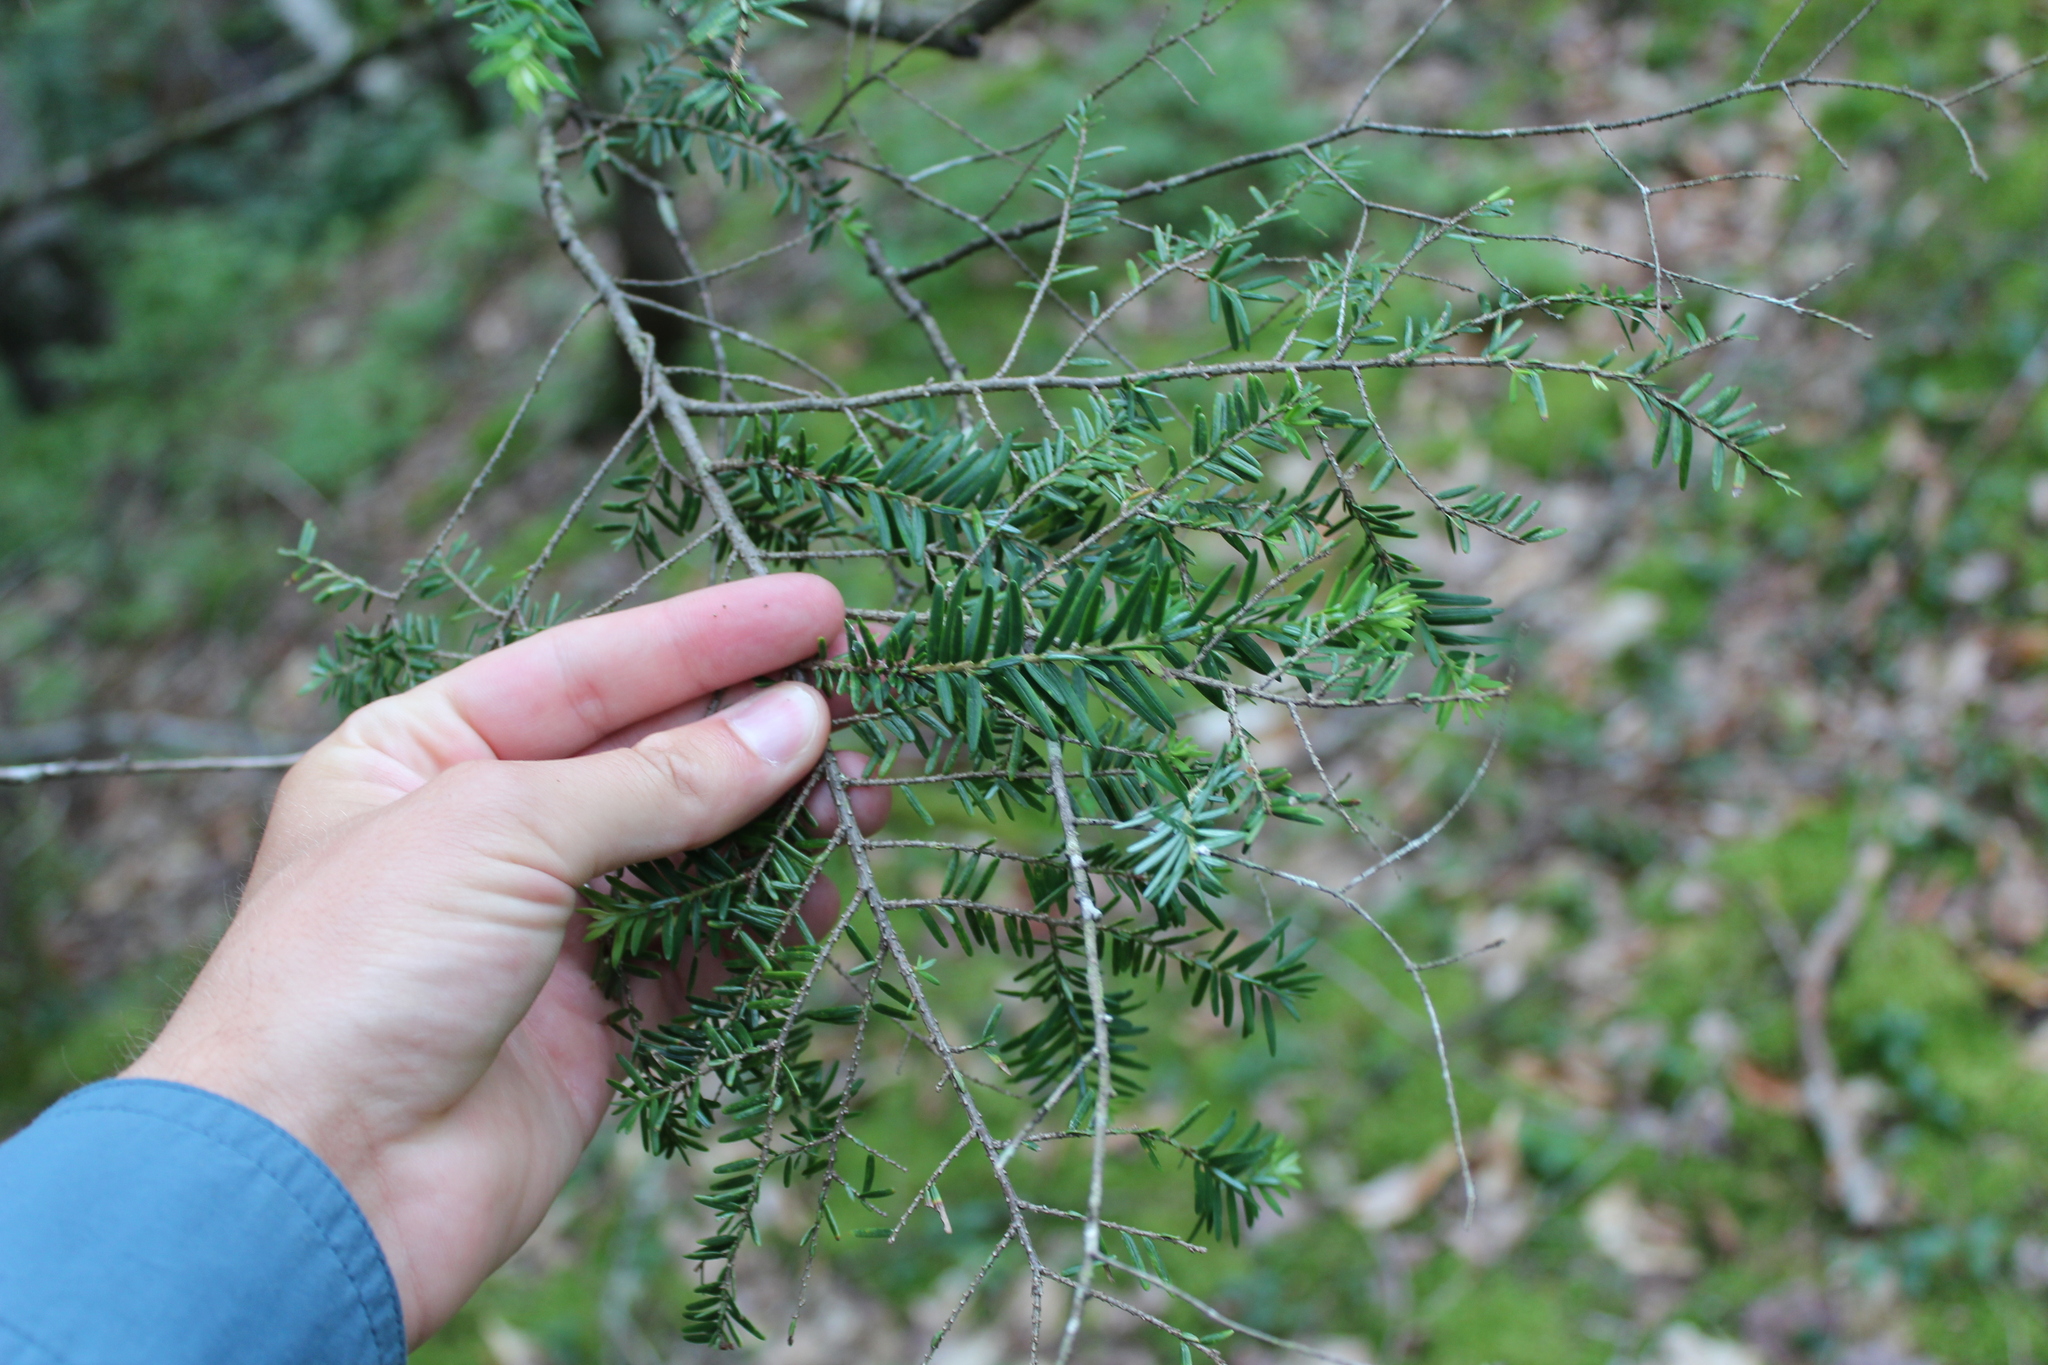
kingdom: Plantae
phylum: Tracheophyta
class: Pinopsida
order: Pinales
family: Pinaceae
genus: Tsuga
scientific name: Tsuga canadensis
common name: Eastern hemlock
